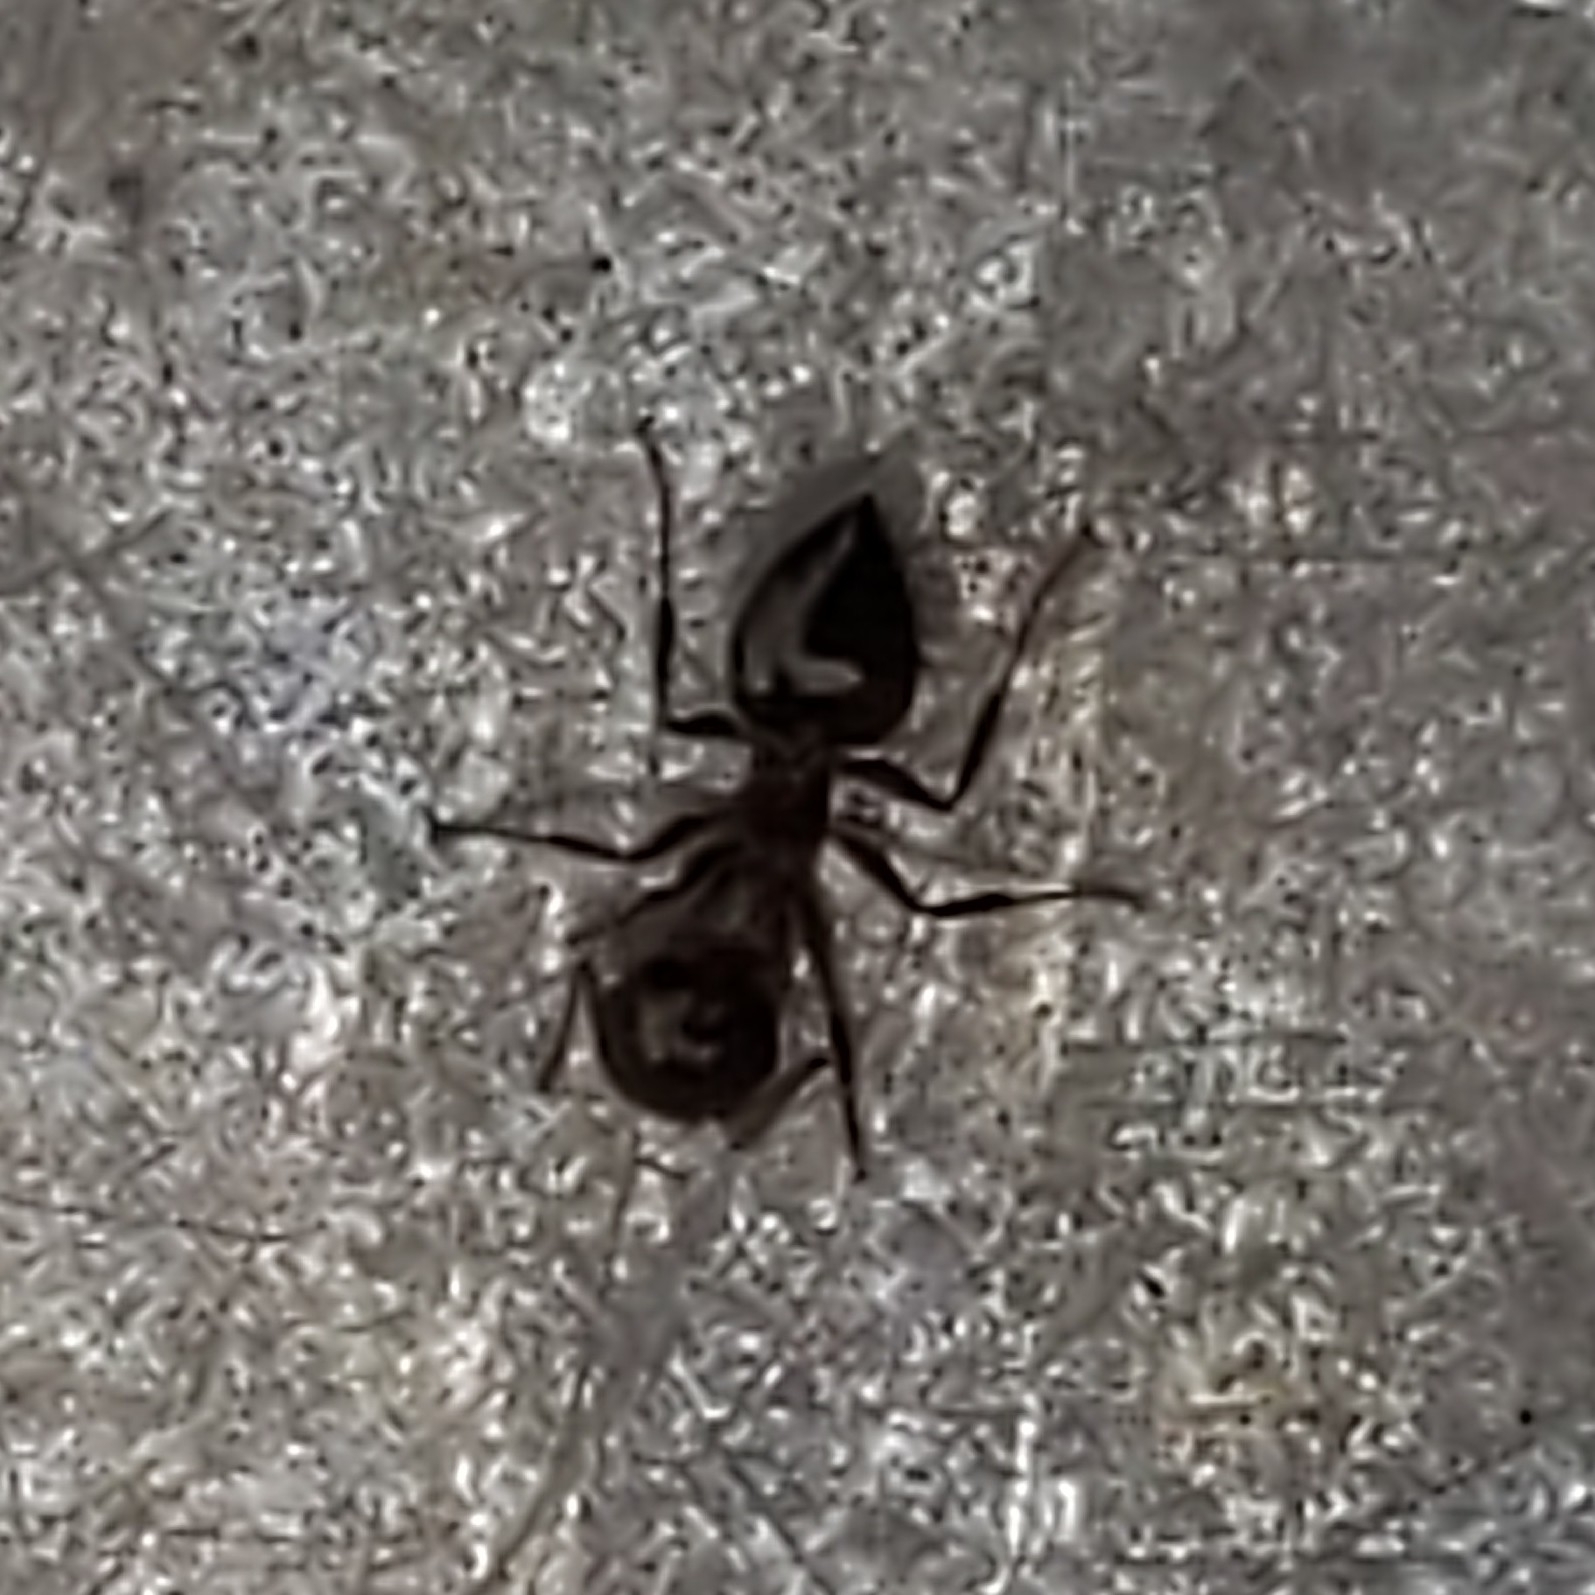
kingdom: Animalia
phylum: Arthropoda
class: Insecta
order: Hymenoptera
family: Formicidae
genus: Crematogaster
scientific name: Crematogaster
